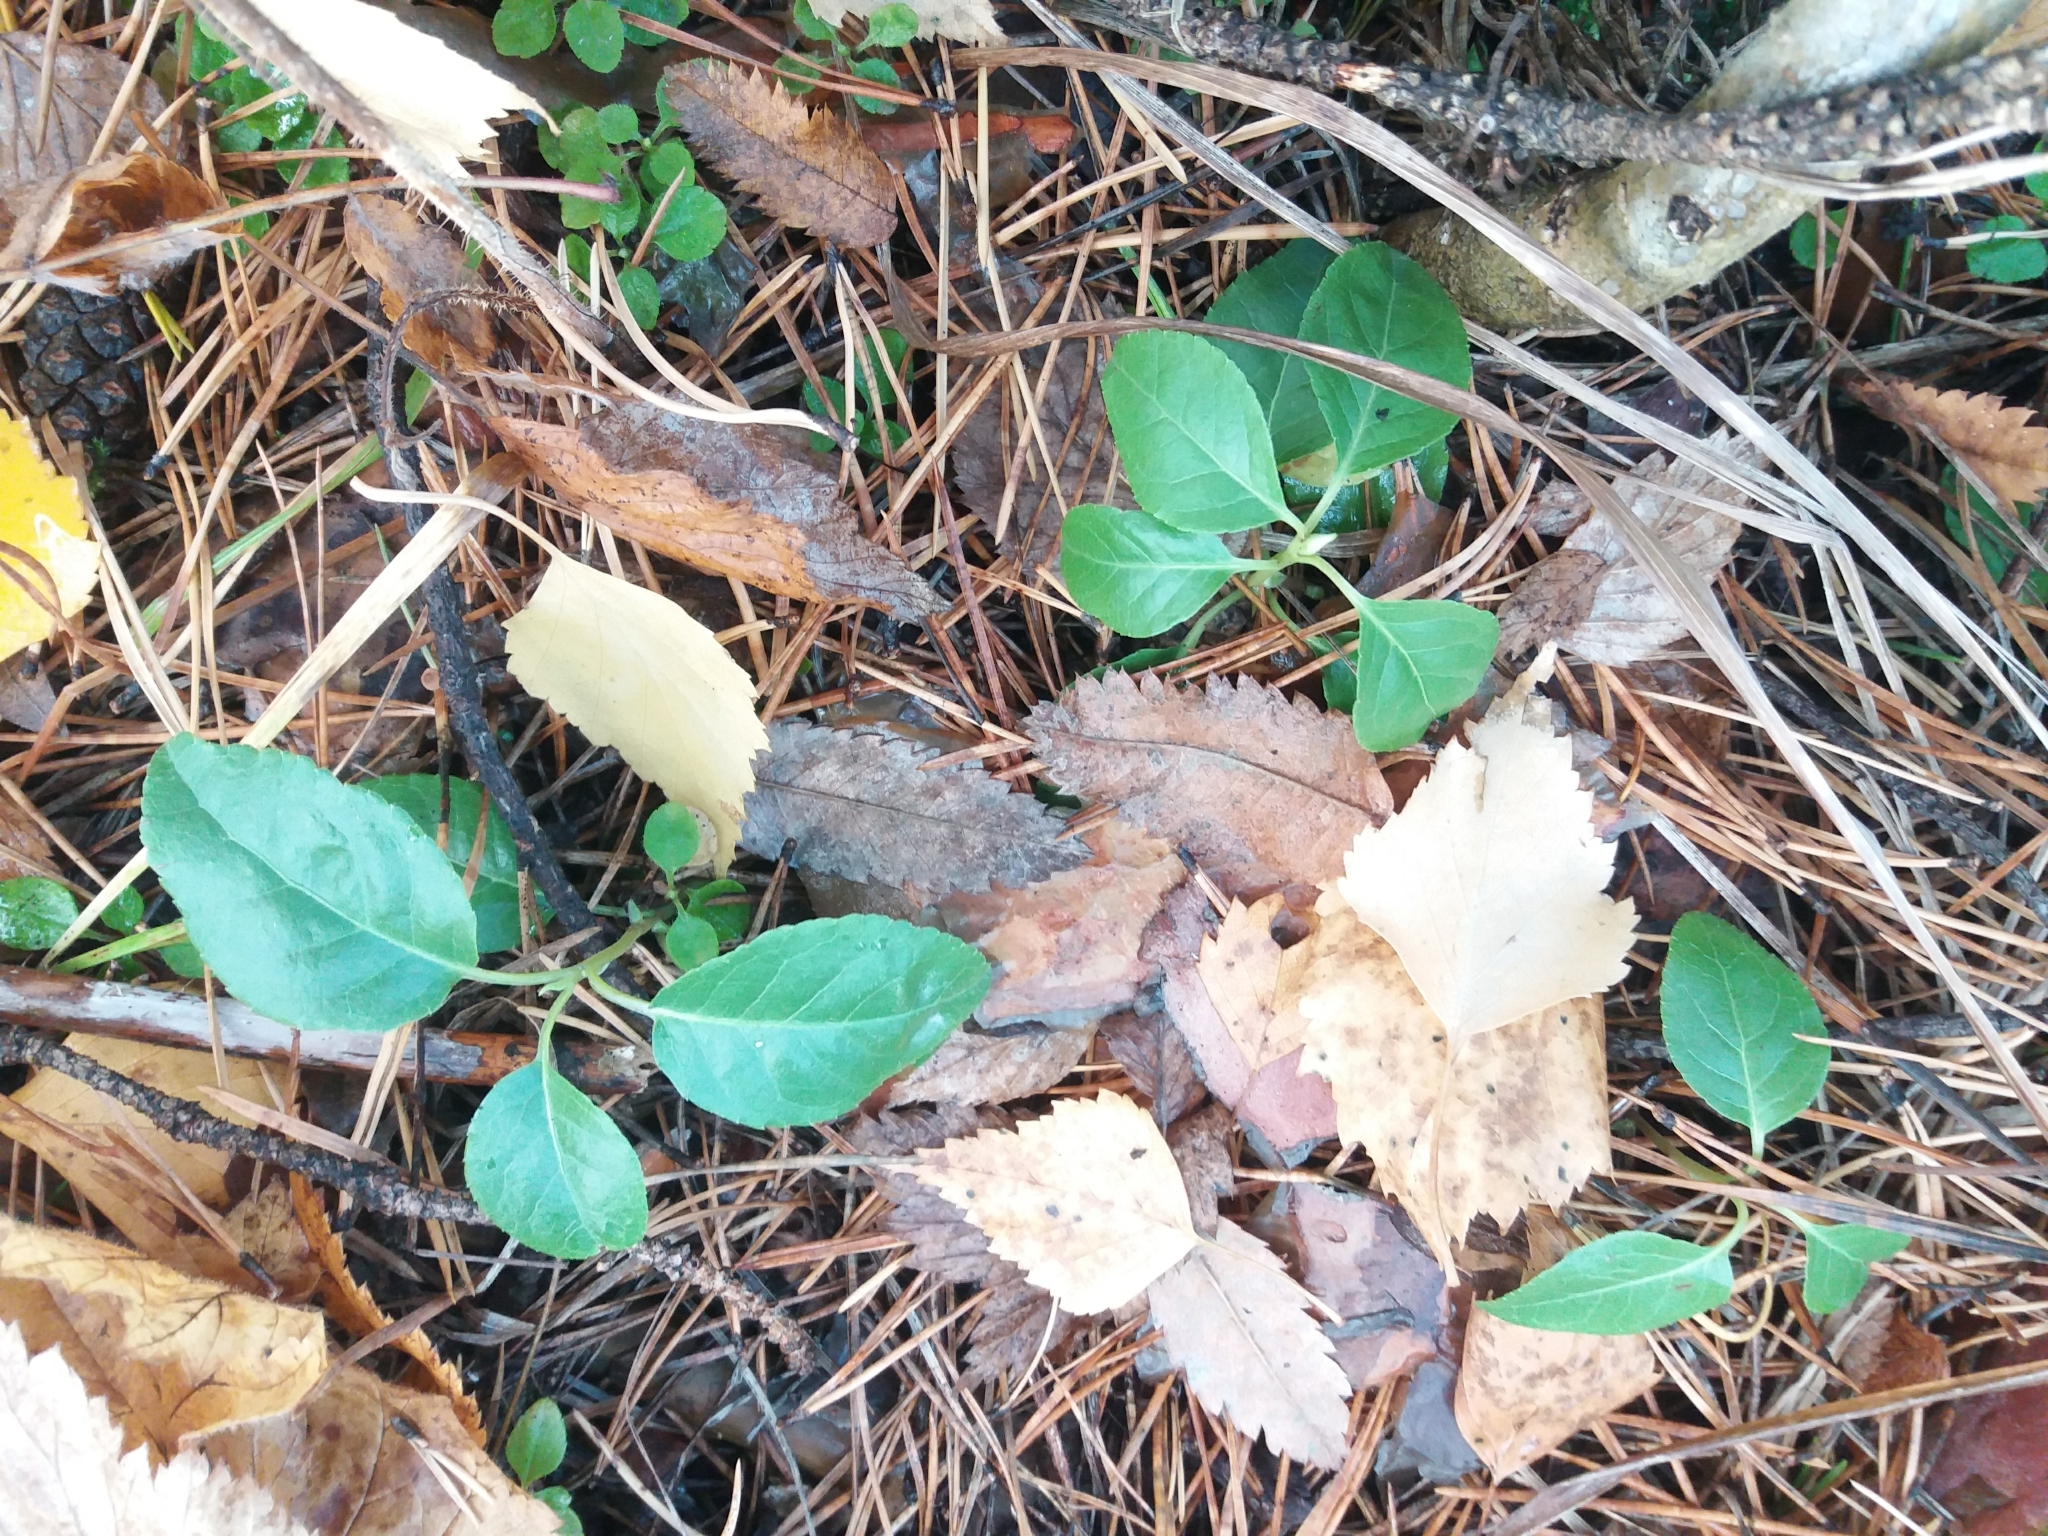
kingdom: Plantae
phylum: Tracheophyta
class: Magnoliopsida
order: Ericales
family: Ericaceae
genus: Orthilia
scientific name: Orthilia secunda
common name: One-sided orthilia
